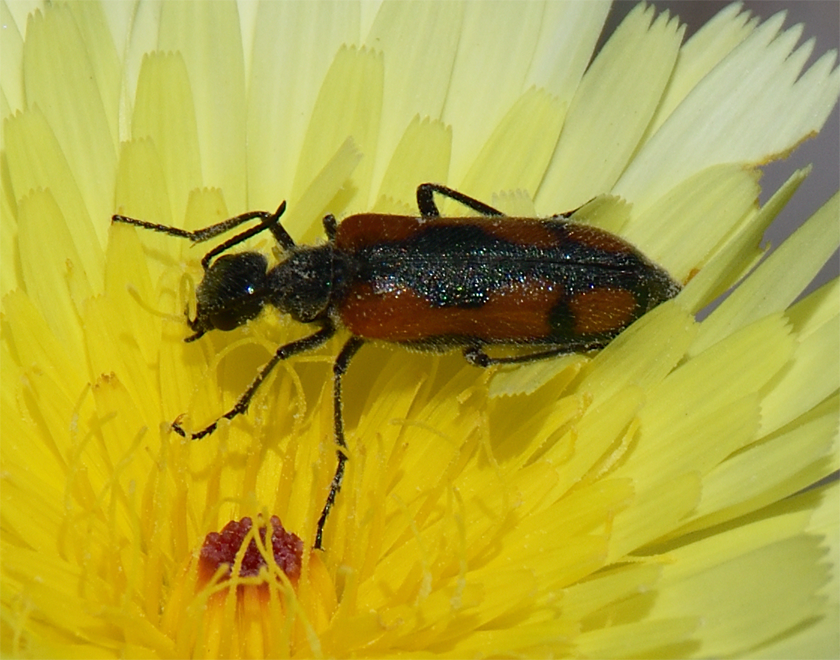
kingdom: Animalia
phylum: Arthropoda
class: Insecta
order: Coleoptera
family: Meloidae
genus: Eupompha
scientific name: Eupompha elegans
